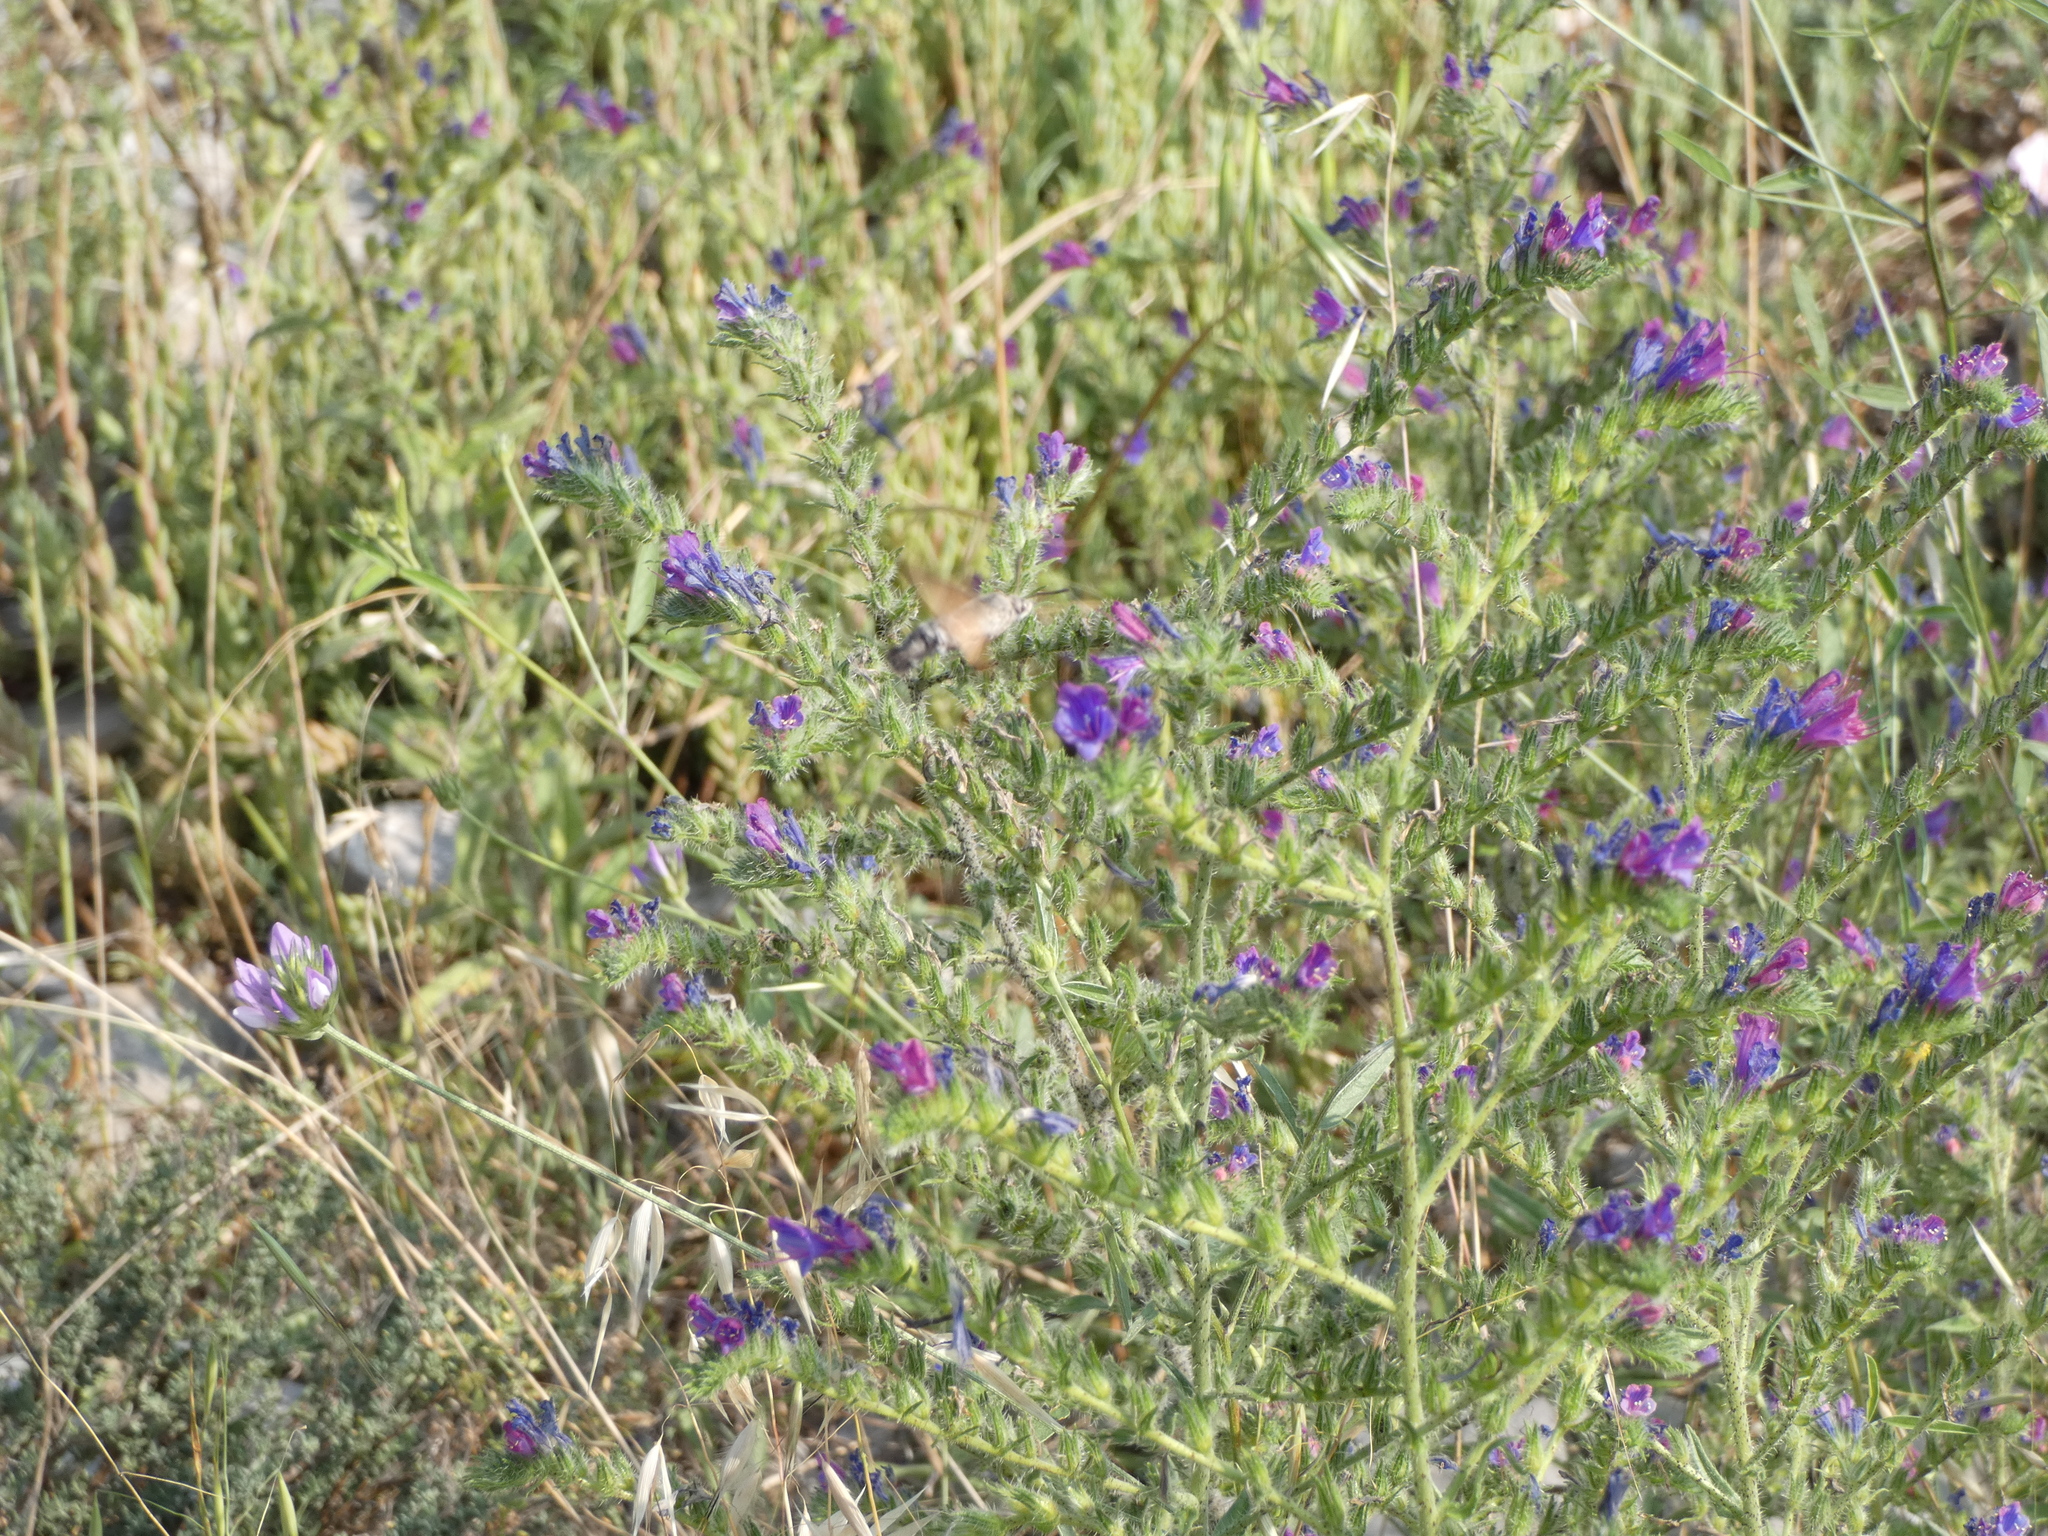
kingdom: Plantae
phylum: Tracheophyta
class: Magnoliopsida
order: Boraginales
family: Boraginaceae
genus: Echium
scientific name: Echium vulgare
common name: Common viper's bugloss
